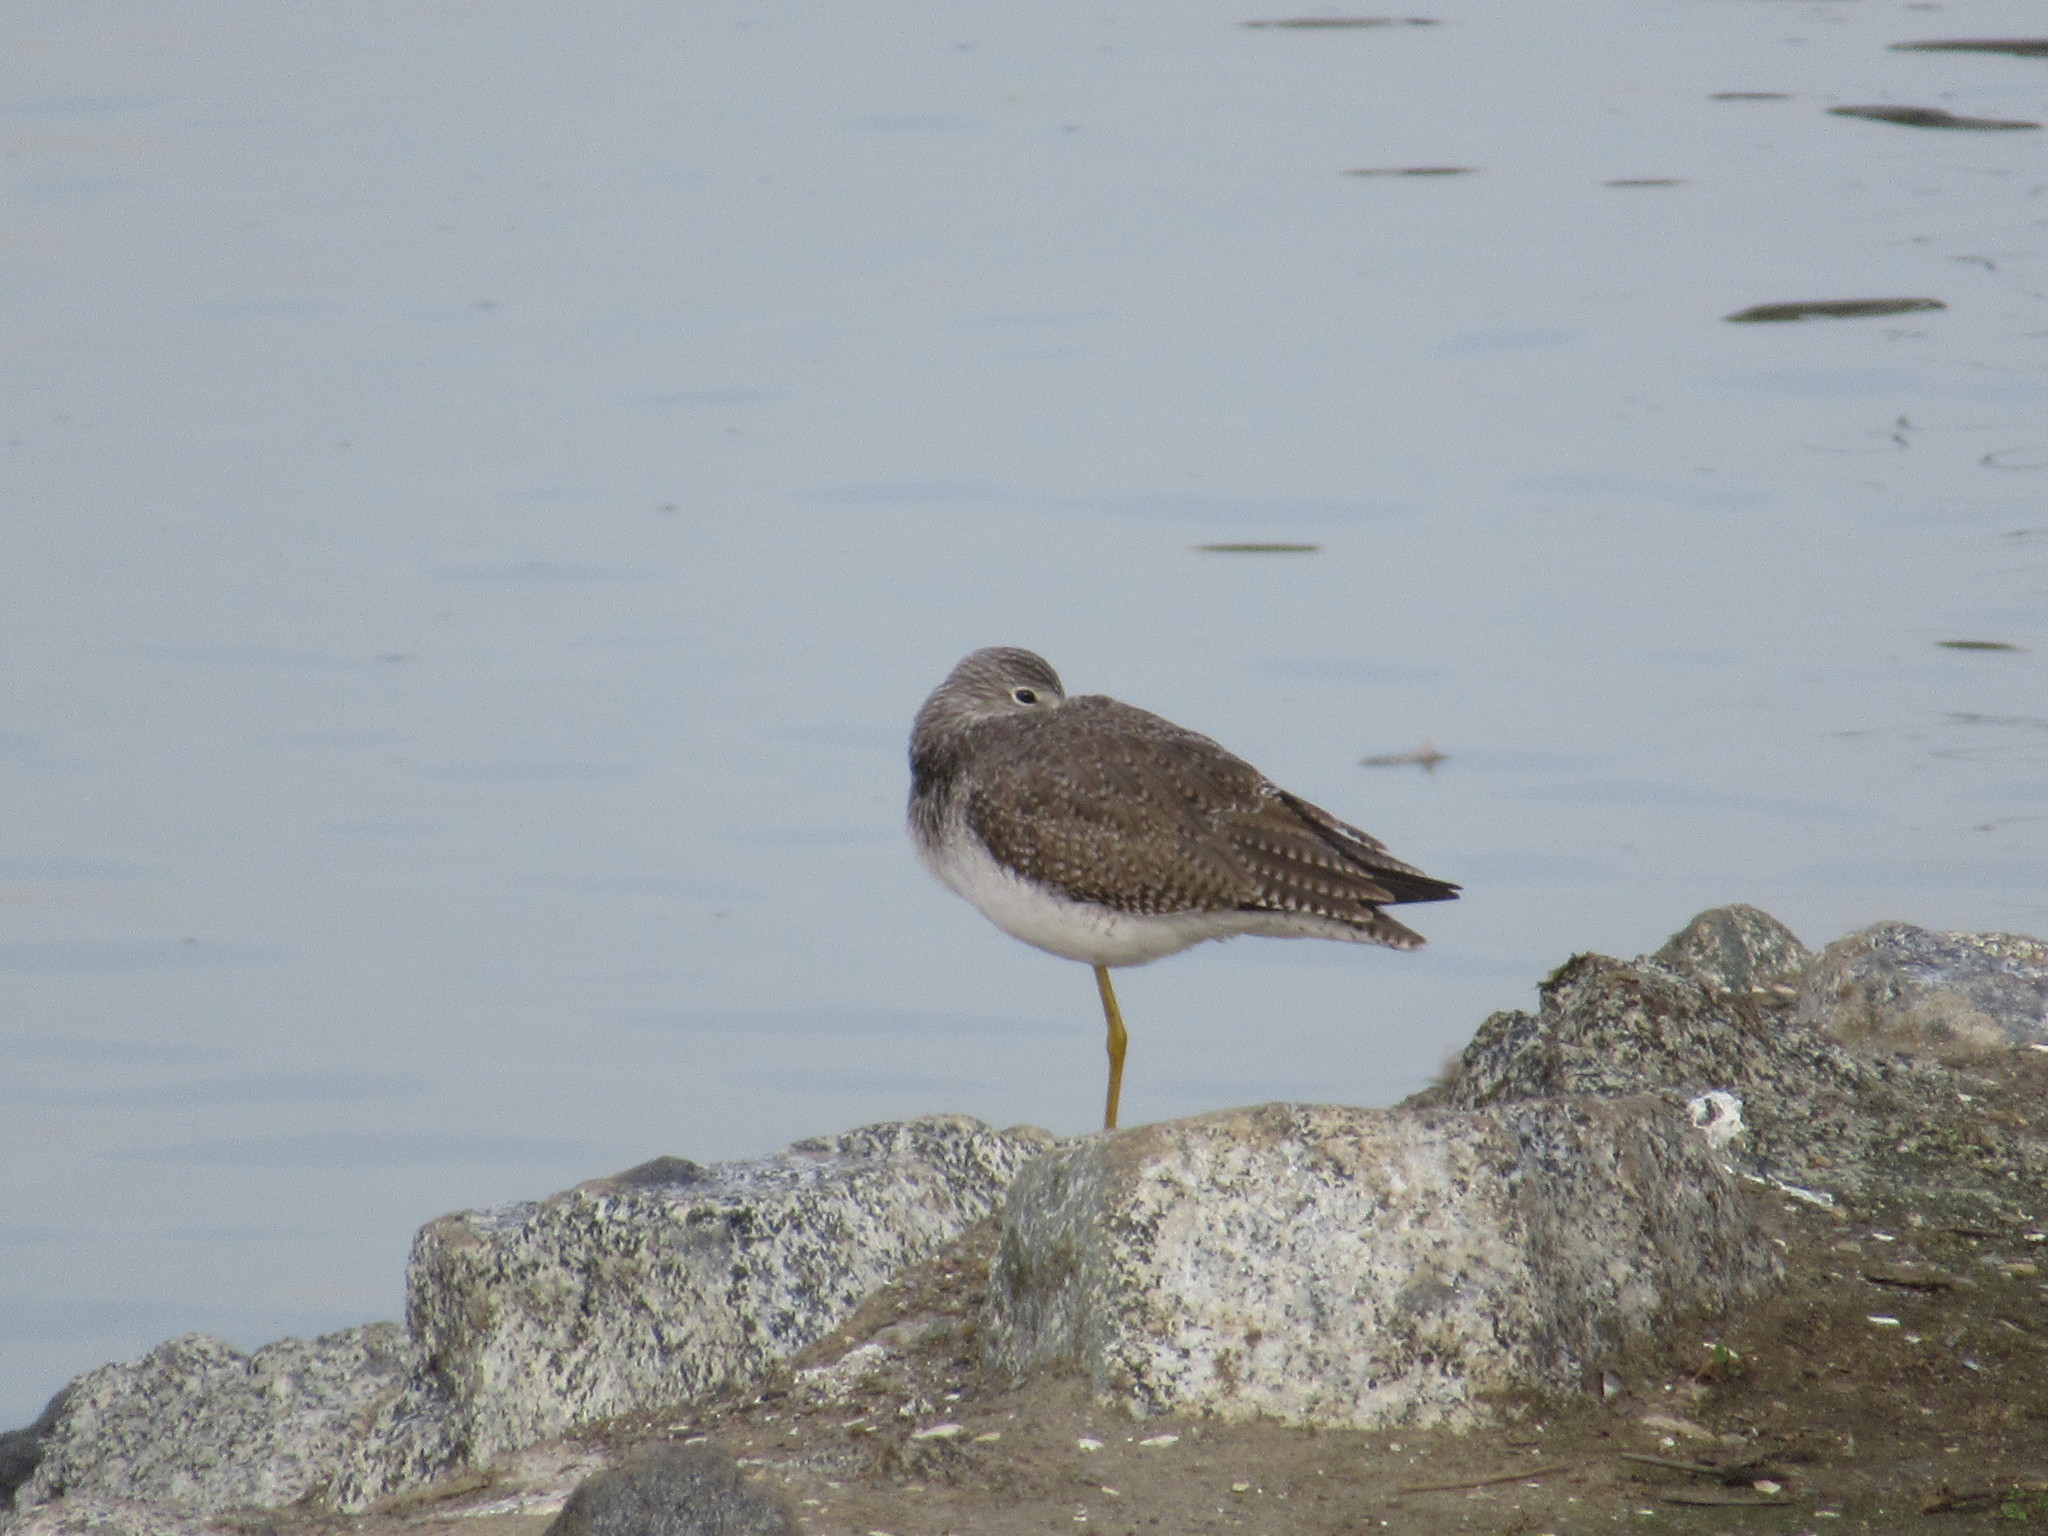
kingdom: Animalia
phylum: Chordata
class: Aves
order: Charadriiformes
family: Scolopacidae
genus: Tringa
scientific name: Tringa melanoleuca
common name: Greater yellowlegs
